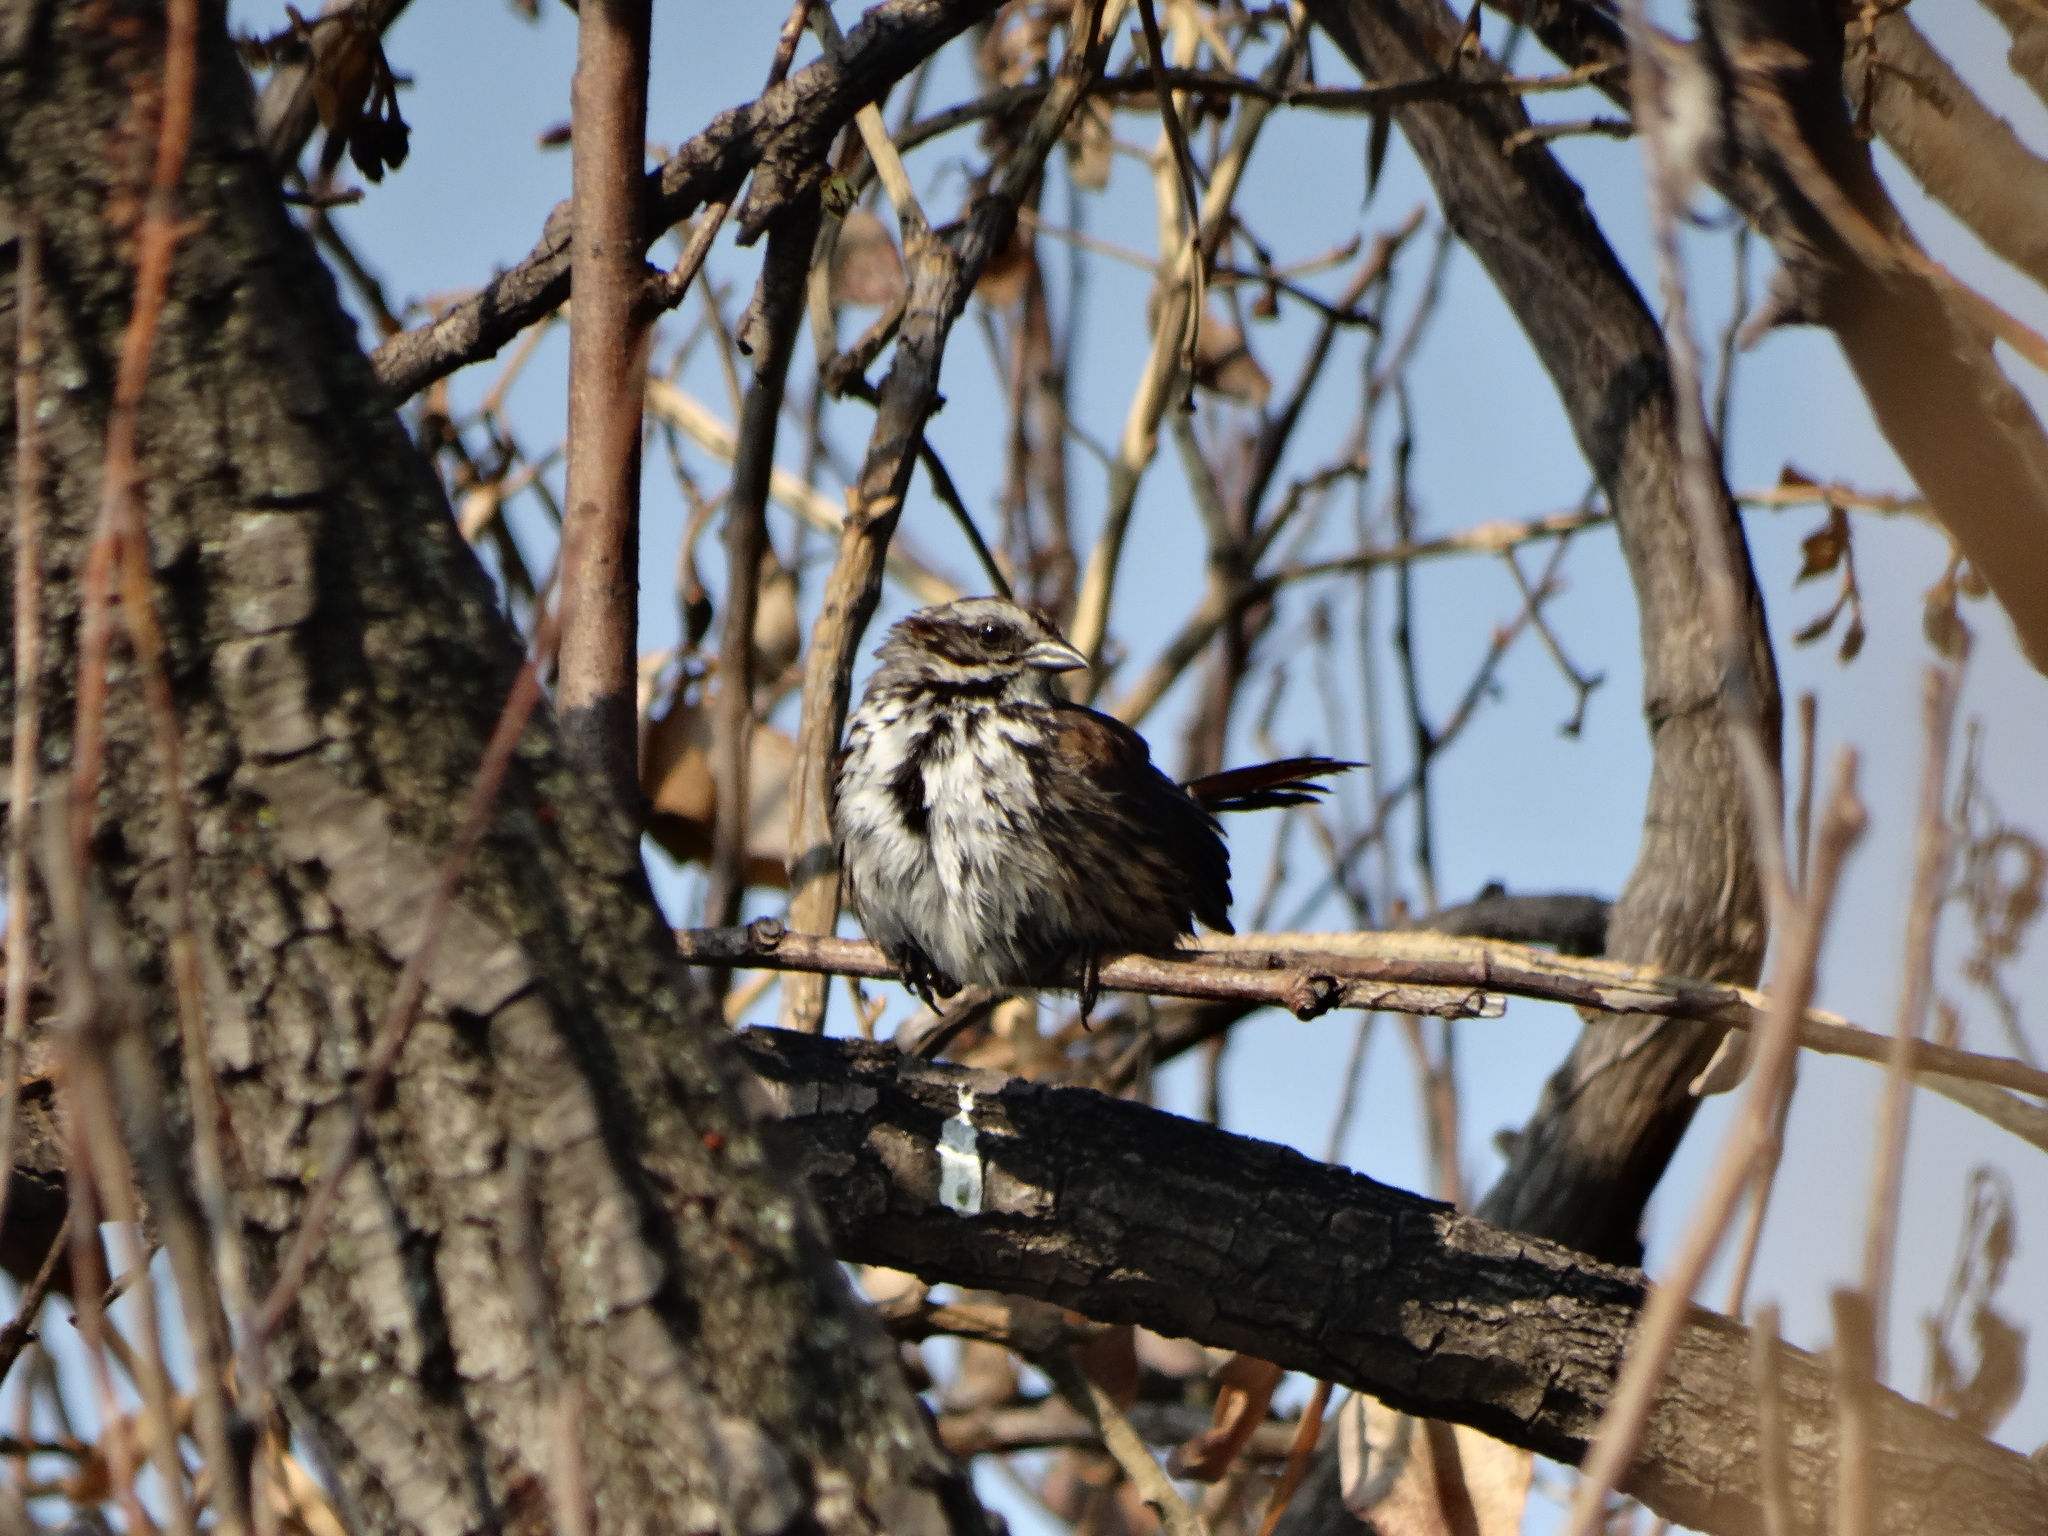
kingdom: Animalia
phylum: Chordata
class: Aves
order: Passeriformes
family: Passerellidae
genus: Melospiza
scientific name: Melospiza melodia
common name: Song sparrow
